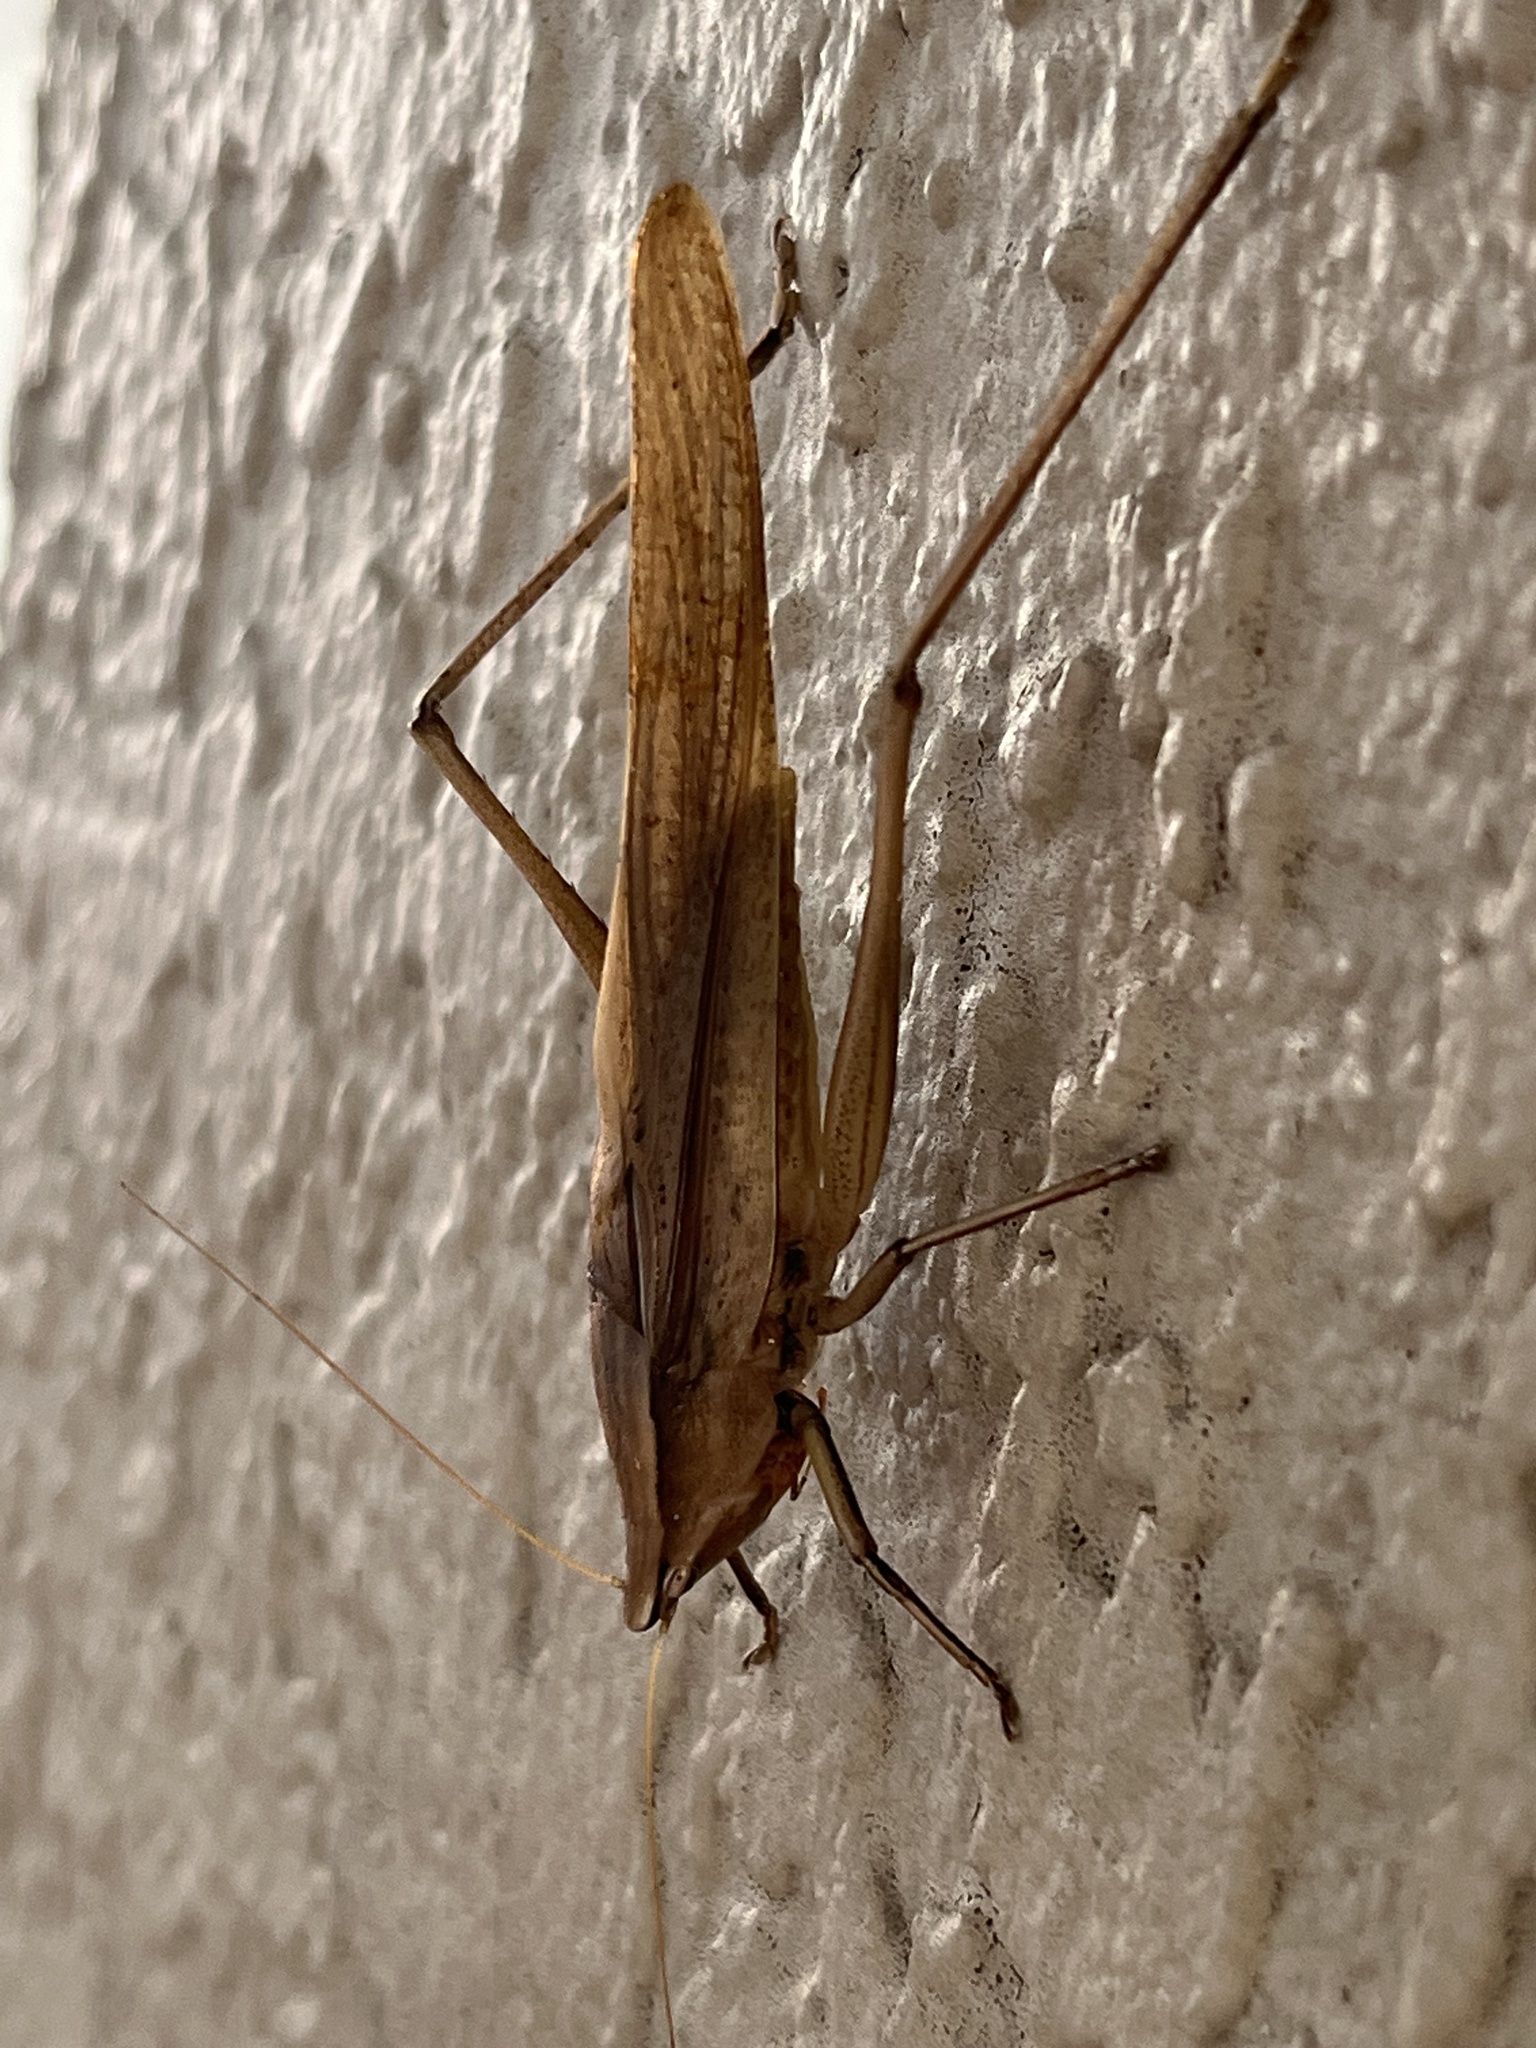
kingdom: Animalia
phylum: Arthropoda
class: Insecta
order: Orthoptera
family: Tettigoniidae
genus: Neoconocephalus
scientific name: Neoconocephalus triops
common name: Broad-tipped conehead
